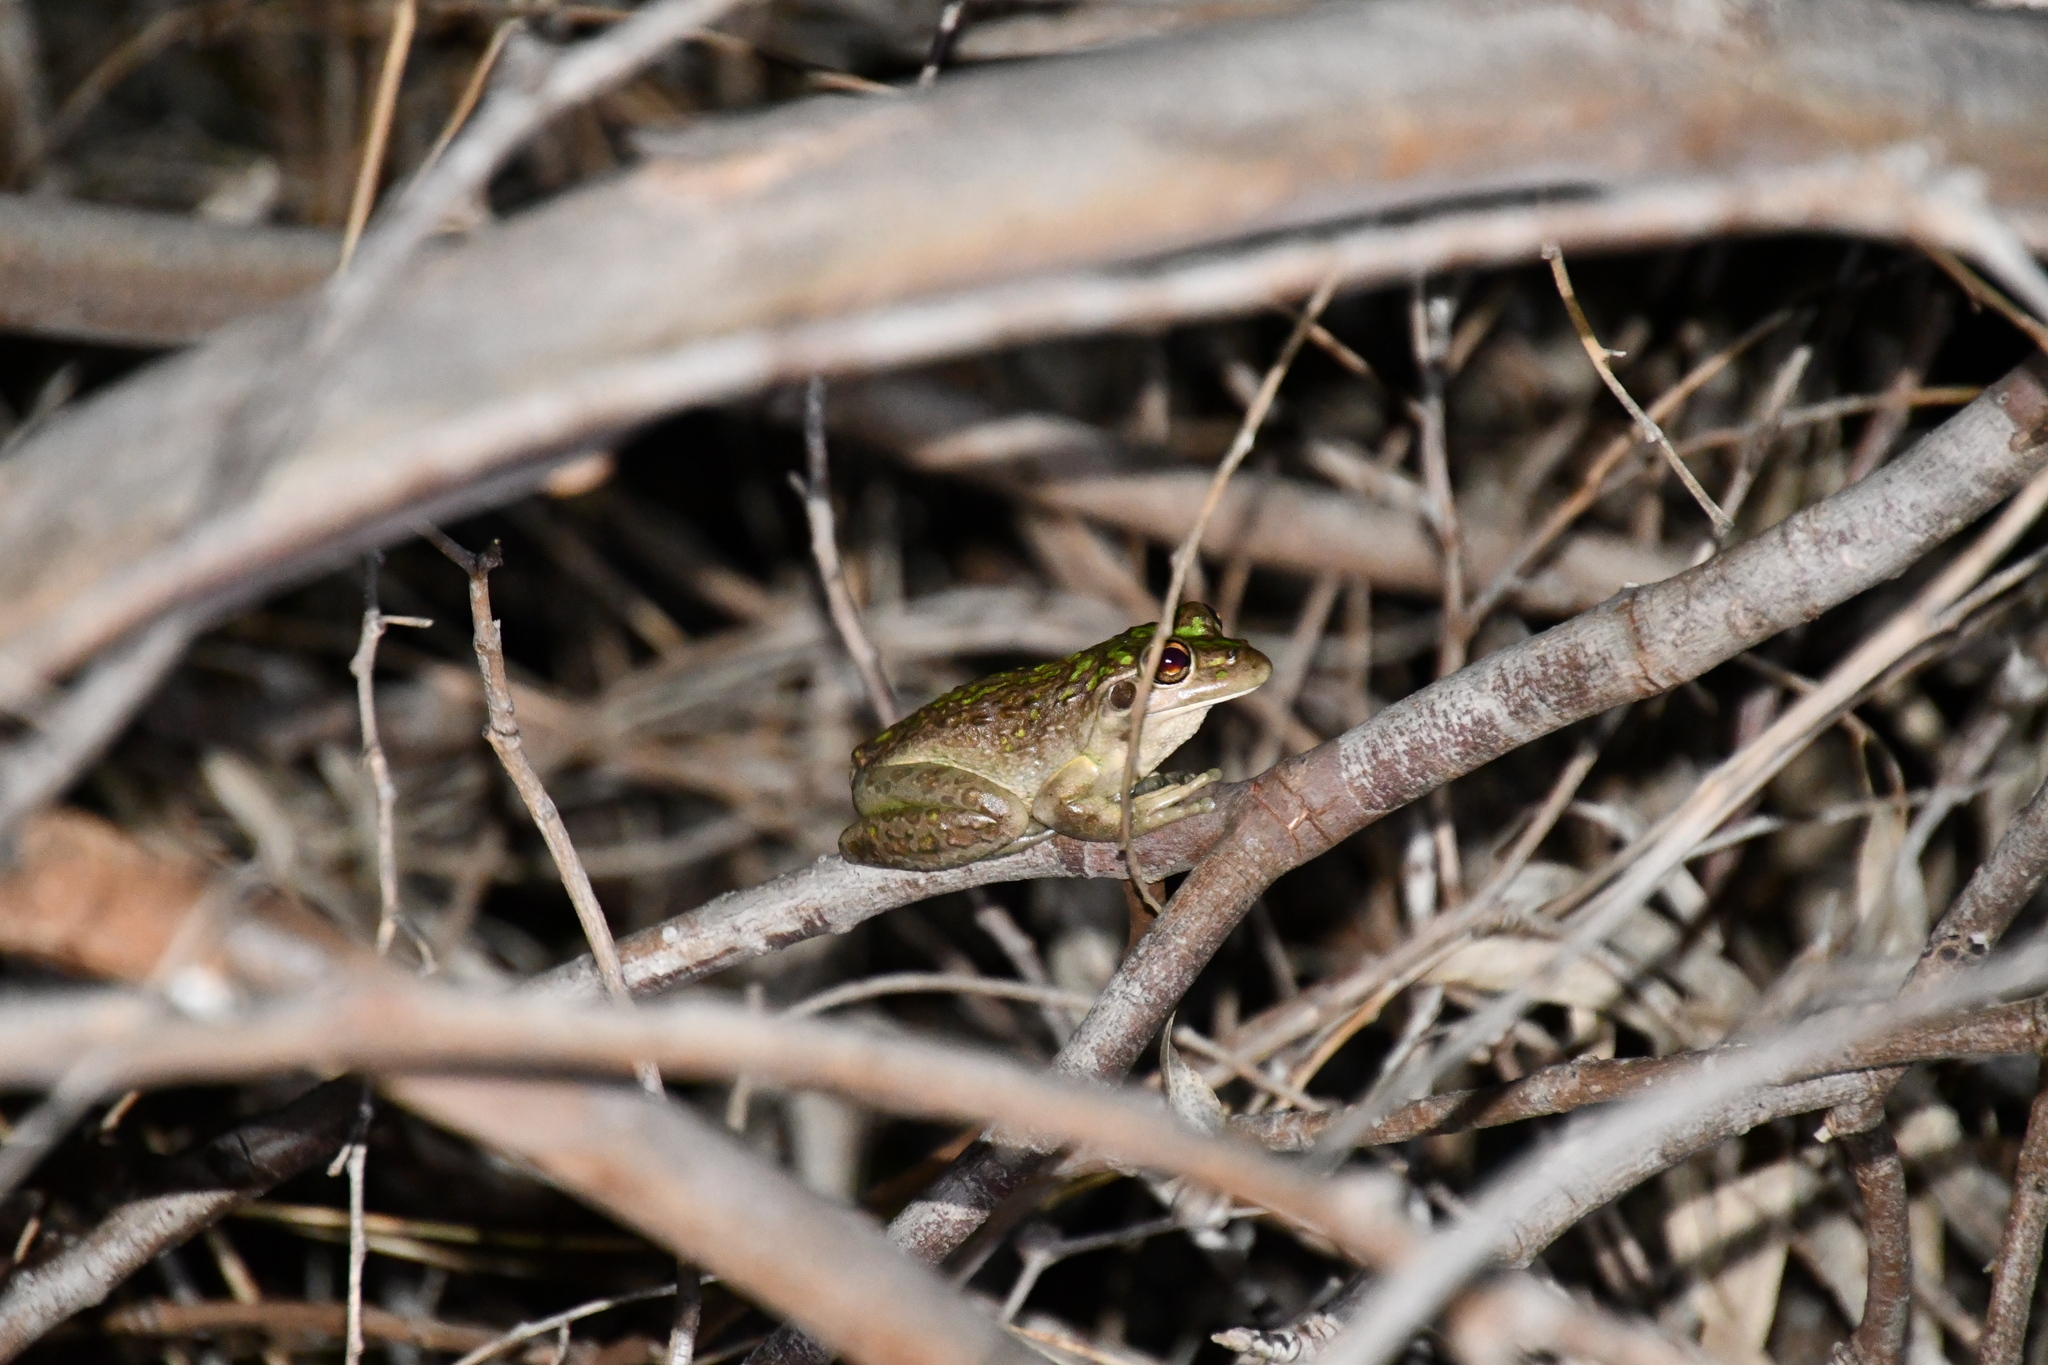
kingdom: Animalia
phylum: Chordata
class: Amphibia
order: Anura
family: Pelodryadidae
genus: Ranoidea
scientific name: Ranoidea moorei
